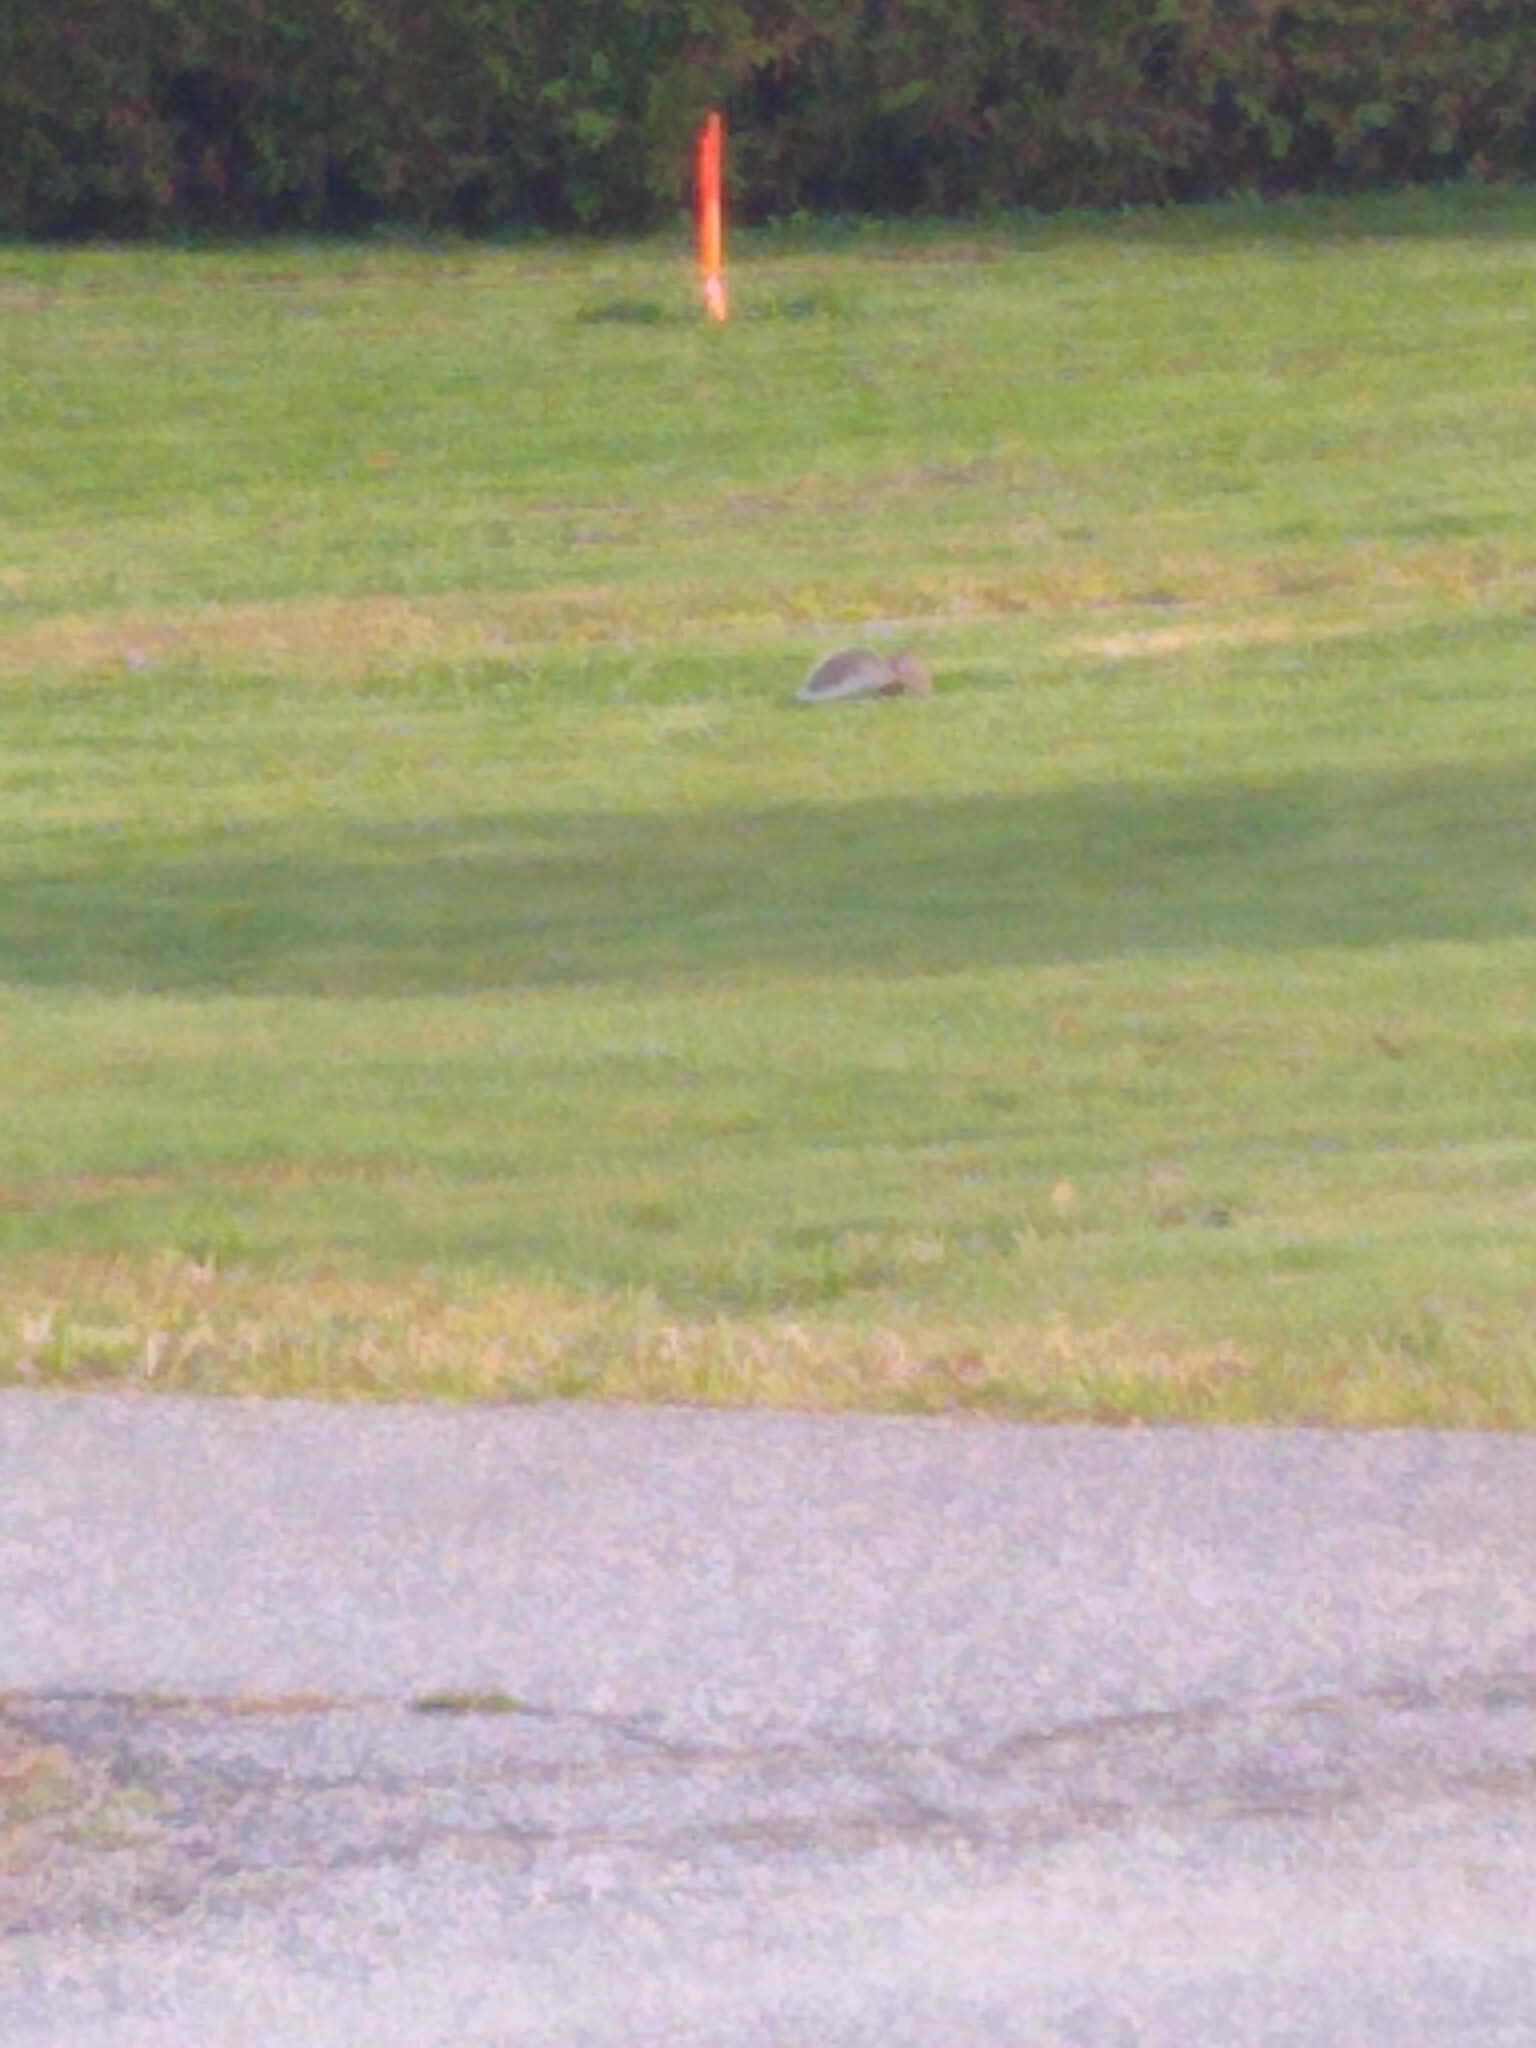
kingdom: Animalia
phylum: Chordata
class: Mammalia
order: Rodentia
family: Sciuridae
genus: Sciurus
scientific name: Sciurus carolinensis
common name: Eastern gray squirrel
